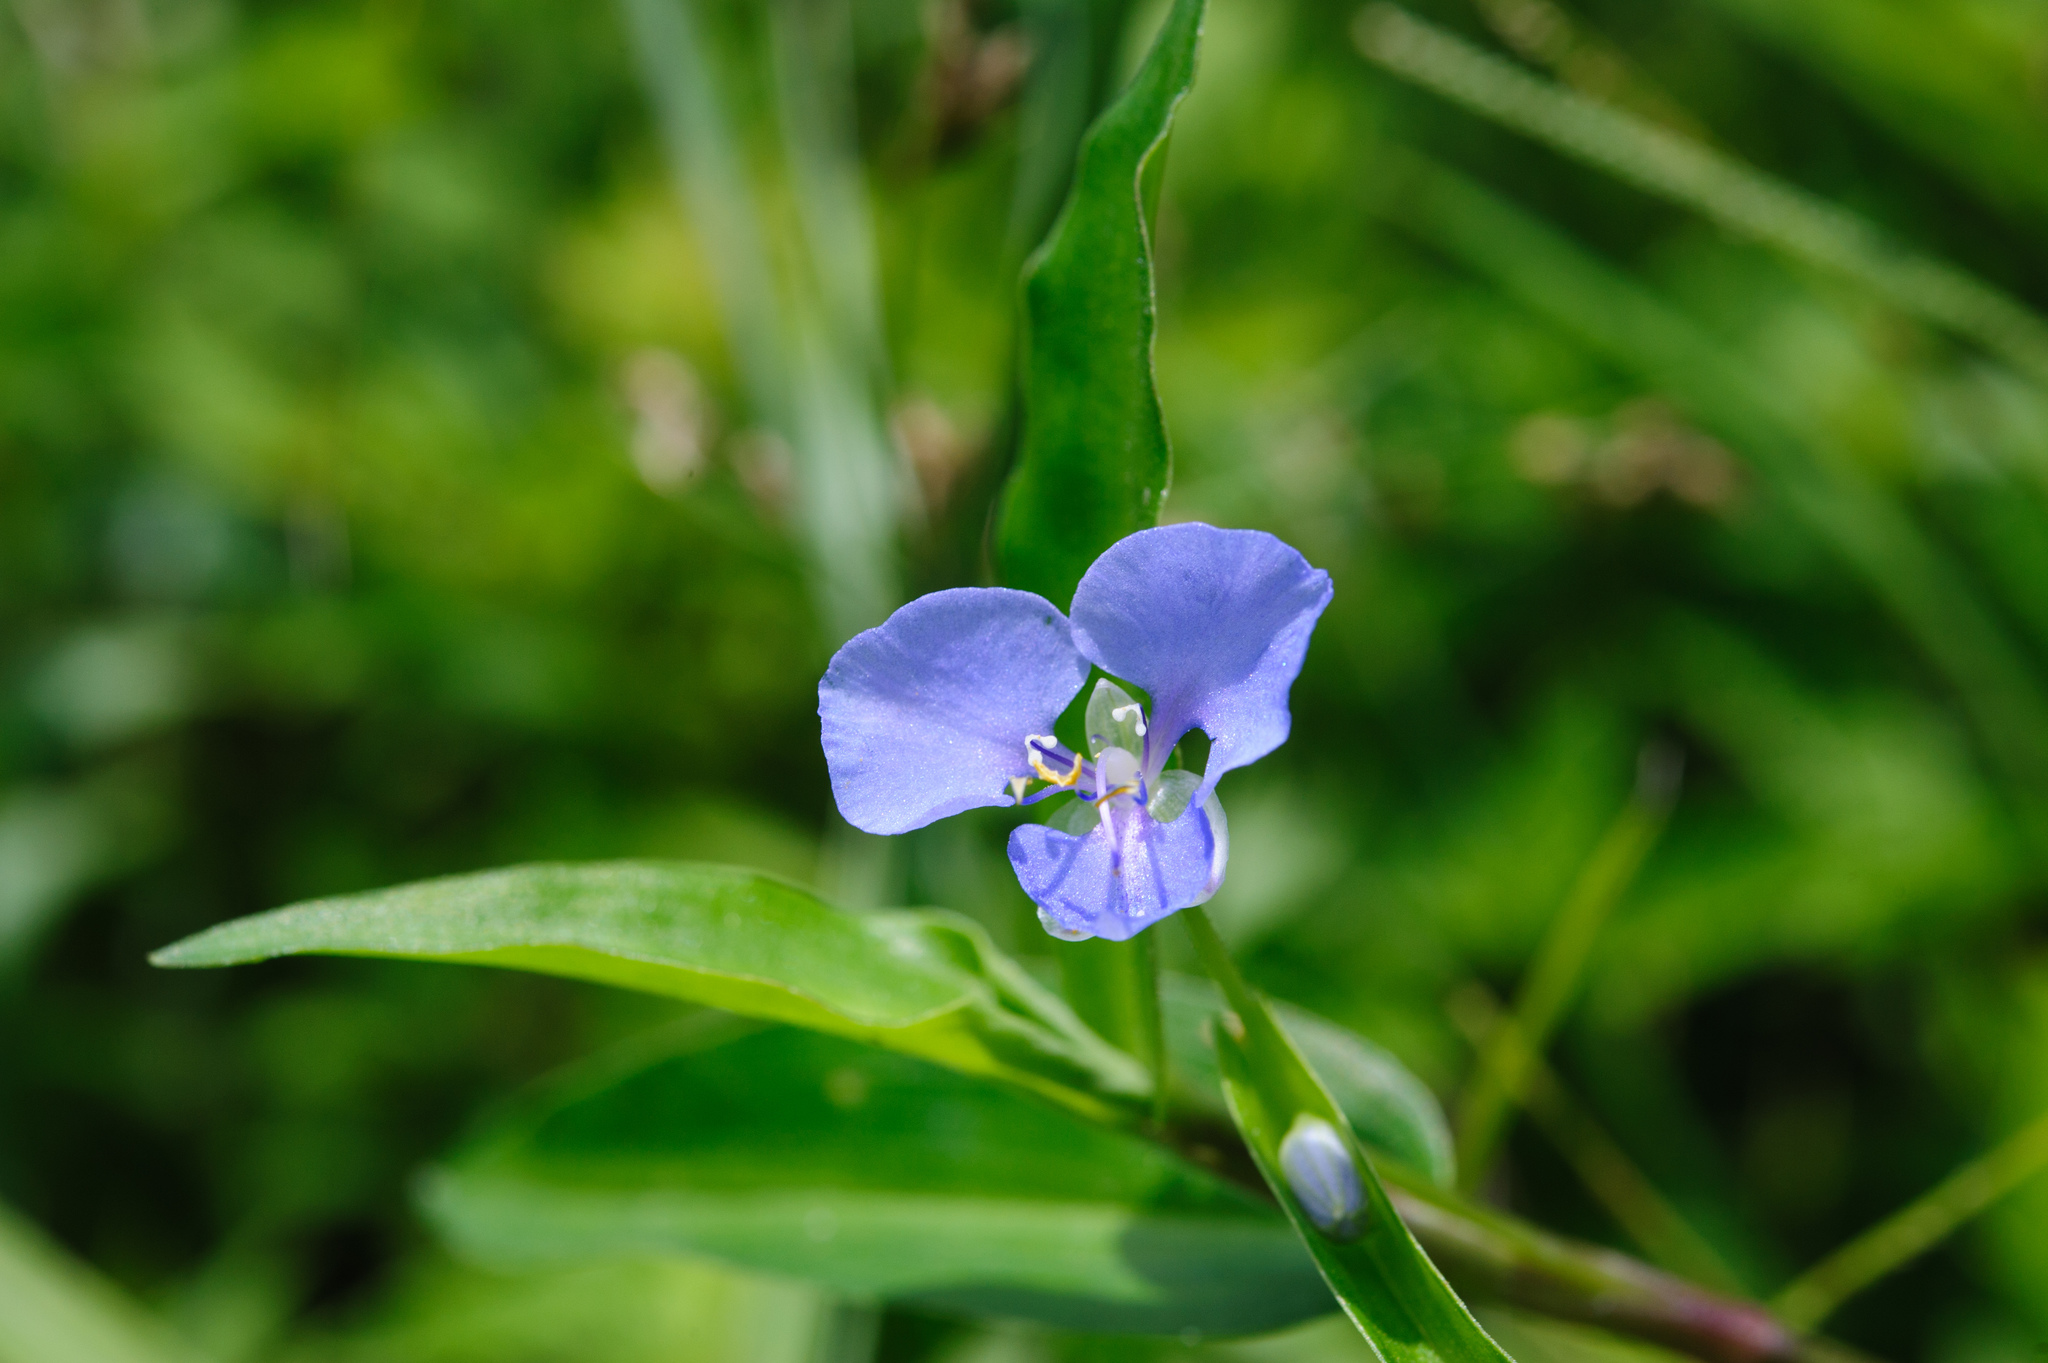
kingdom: Plantae
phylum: Tracheophyta
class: Liliopsida
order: Commelinales
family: Commelinaceae
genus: Commelina
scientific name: Commelina diffusa
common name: Climbing dayflower
